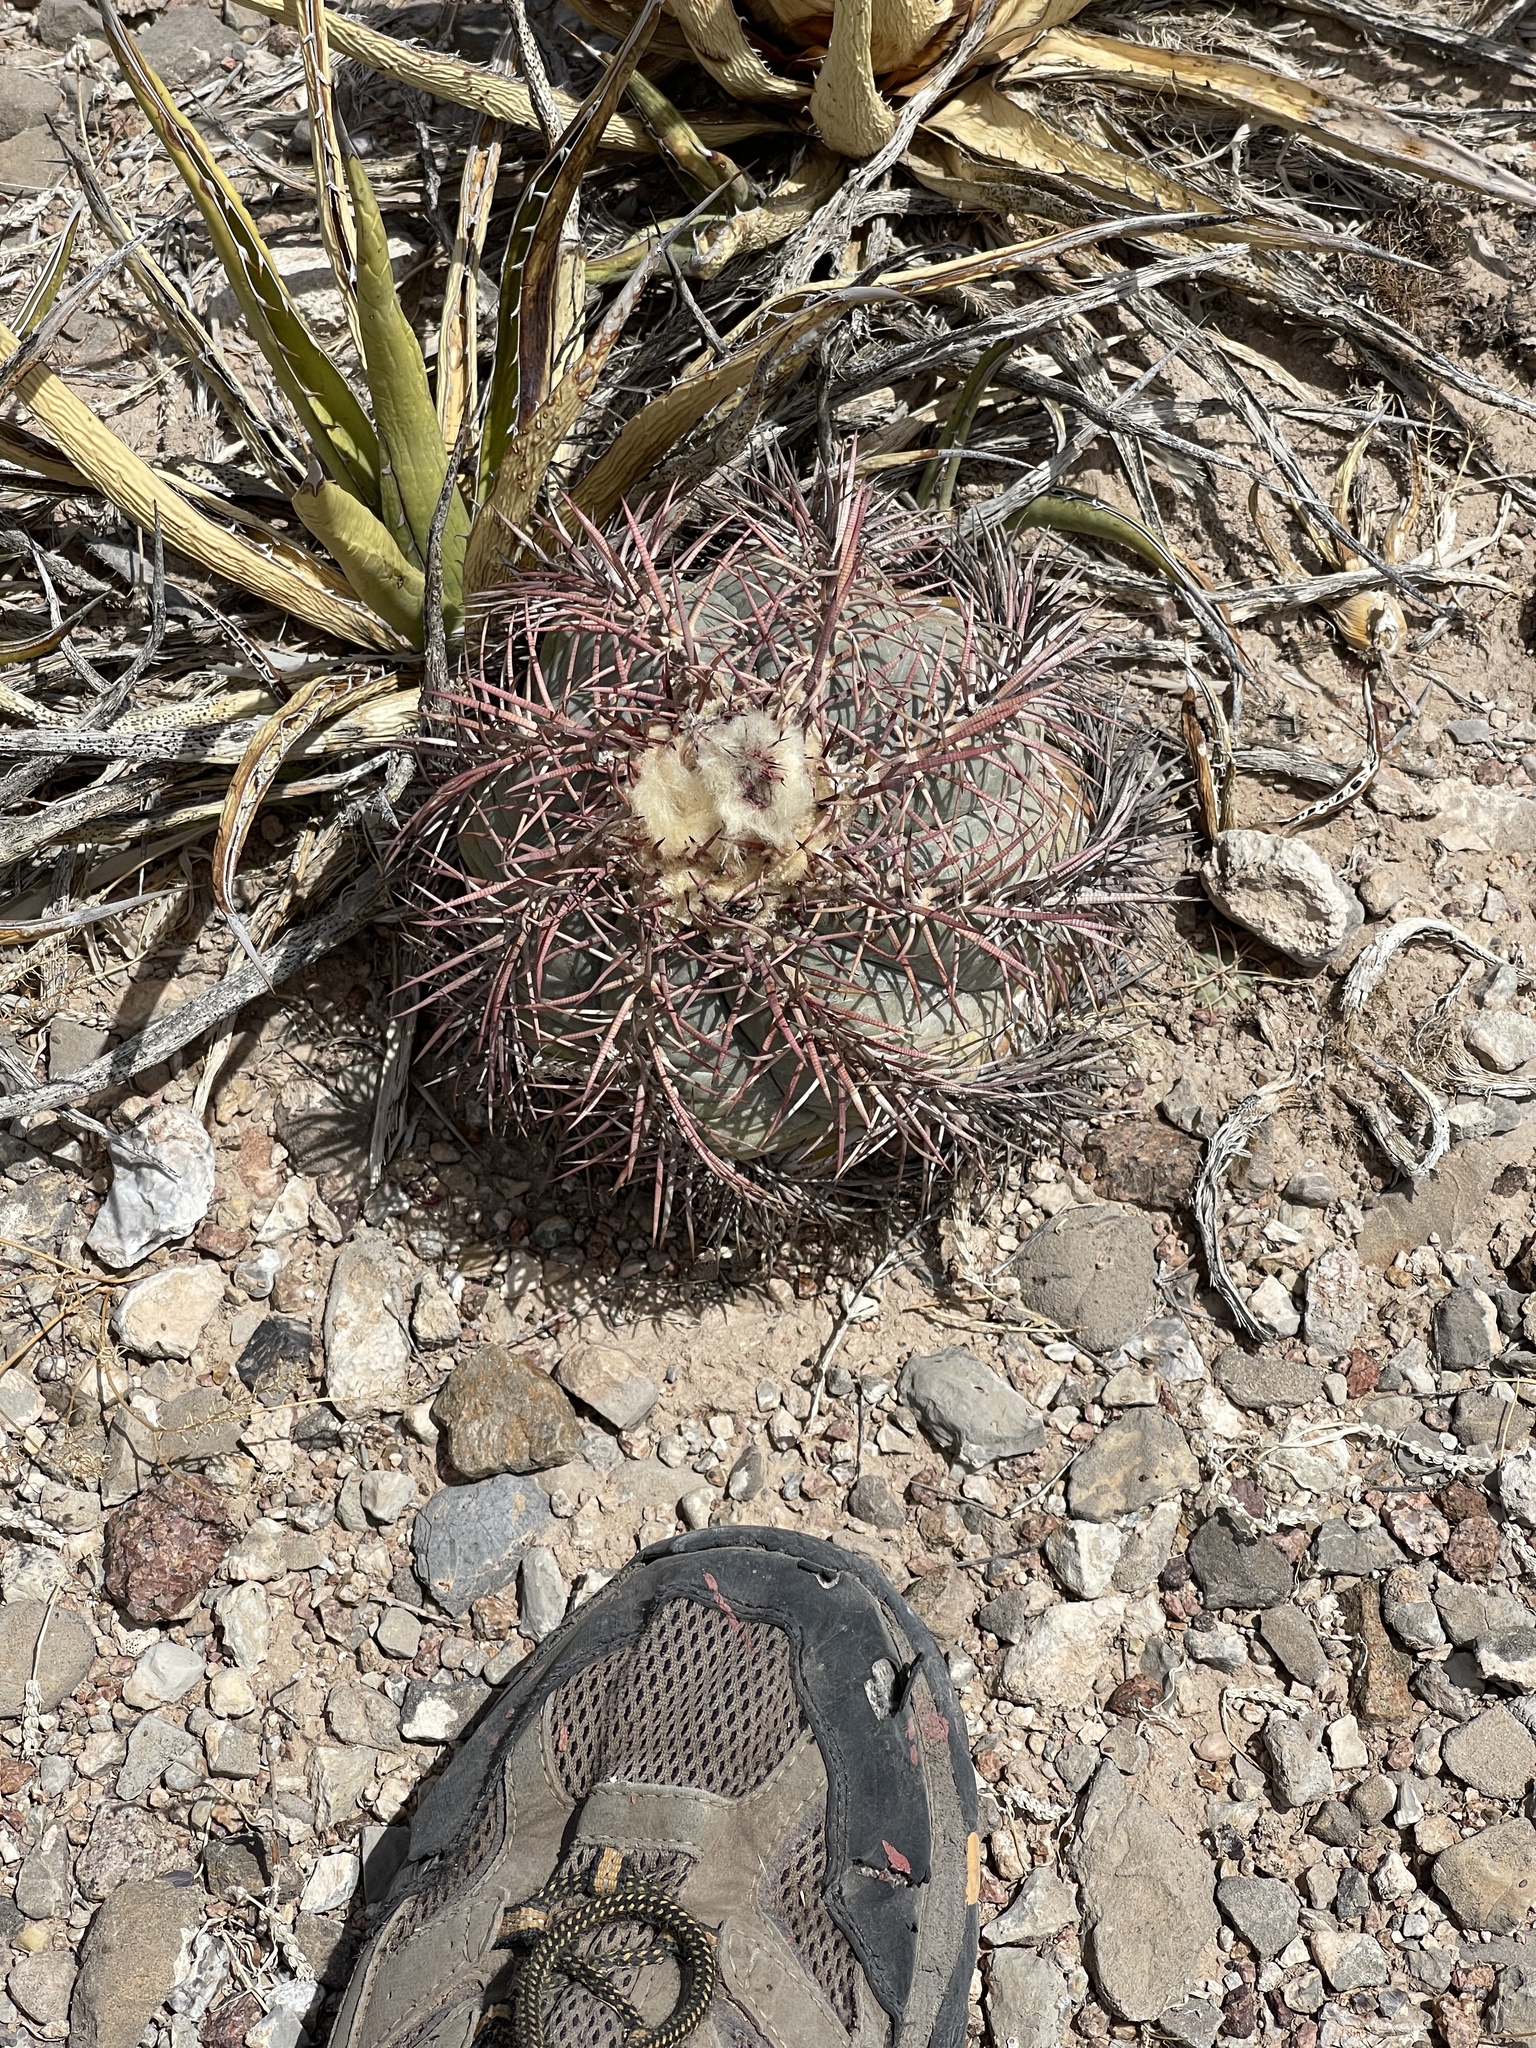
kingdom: Plantae
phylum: Tracheophyta
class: Magnoliopsida
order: Caryophyllales
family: Cactaceae
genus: Echinocactus
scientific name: Echinocactus horizonthalonius
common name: Devilshead
